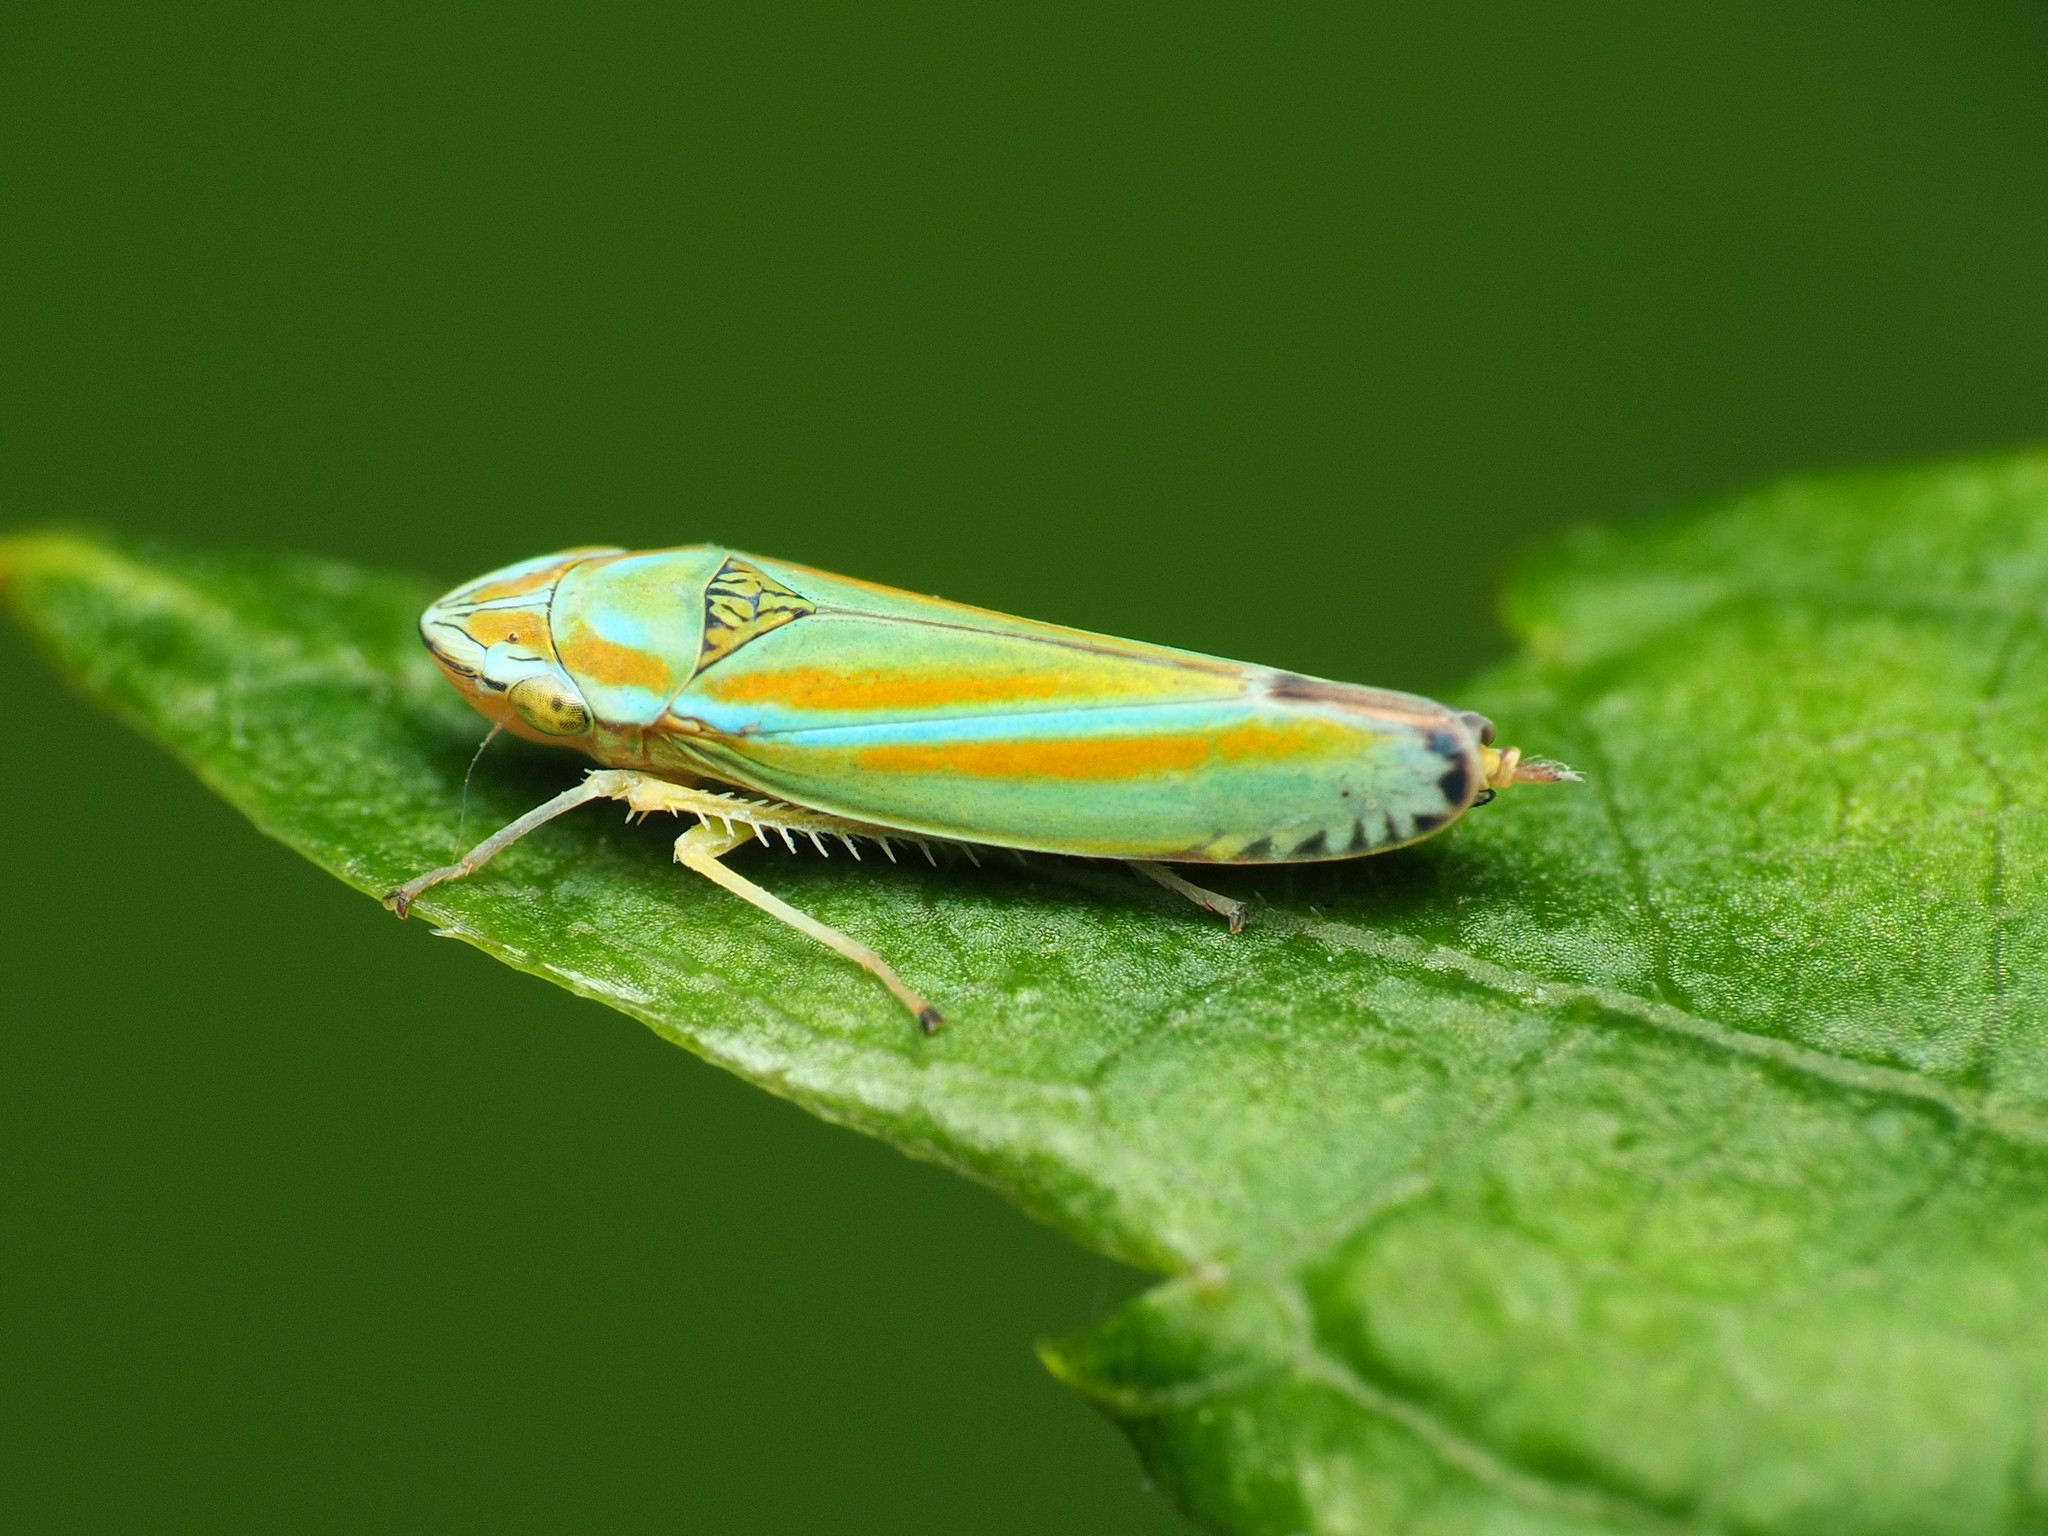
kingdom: Animalia
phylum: Arthropoda
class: Insecta
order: Hemiptera
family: Cicadellidae
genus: Graphocephala
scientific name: Graphocephala versuta
